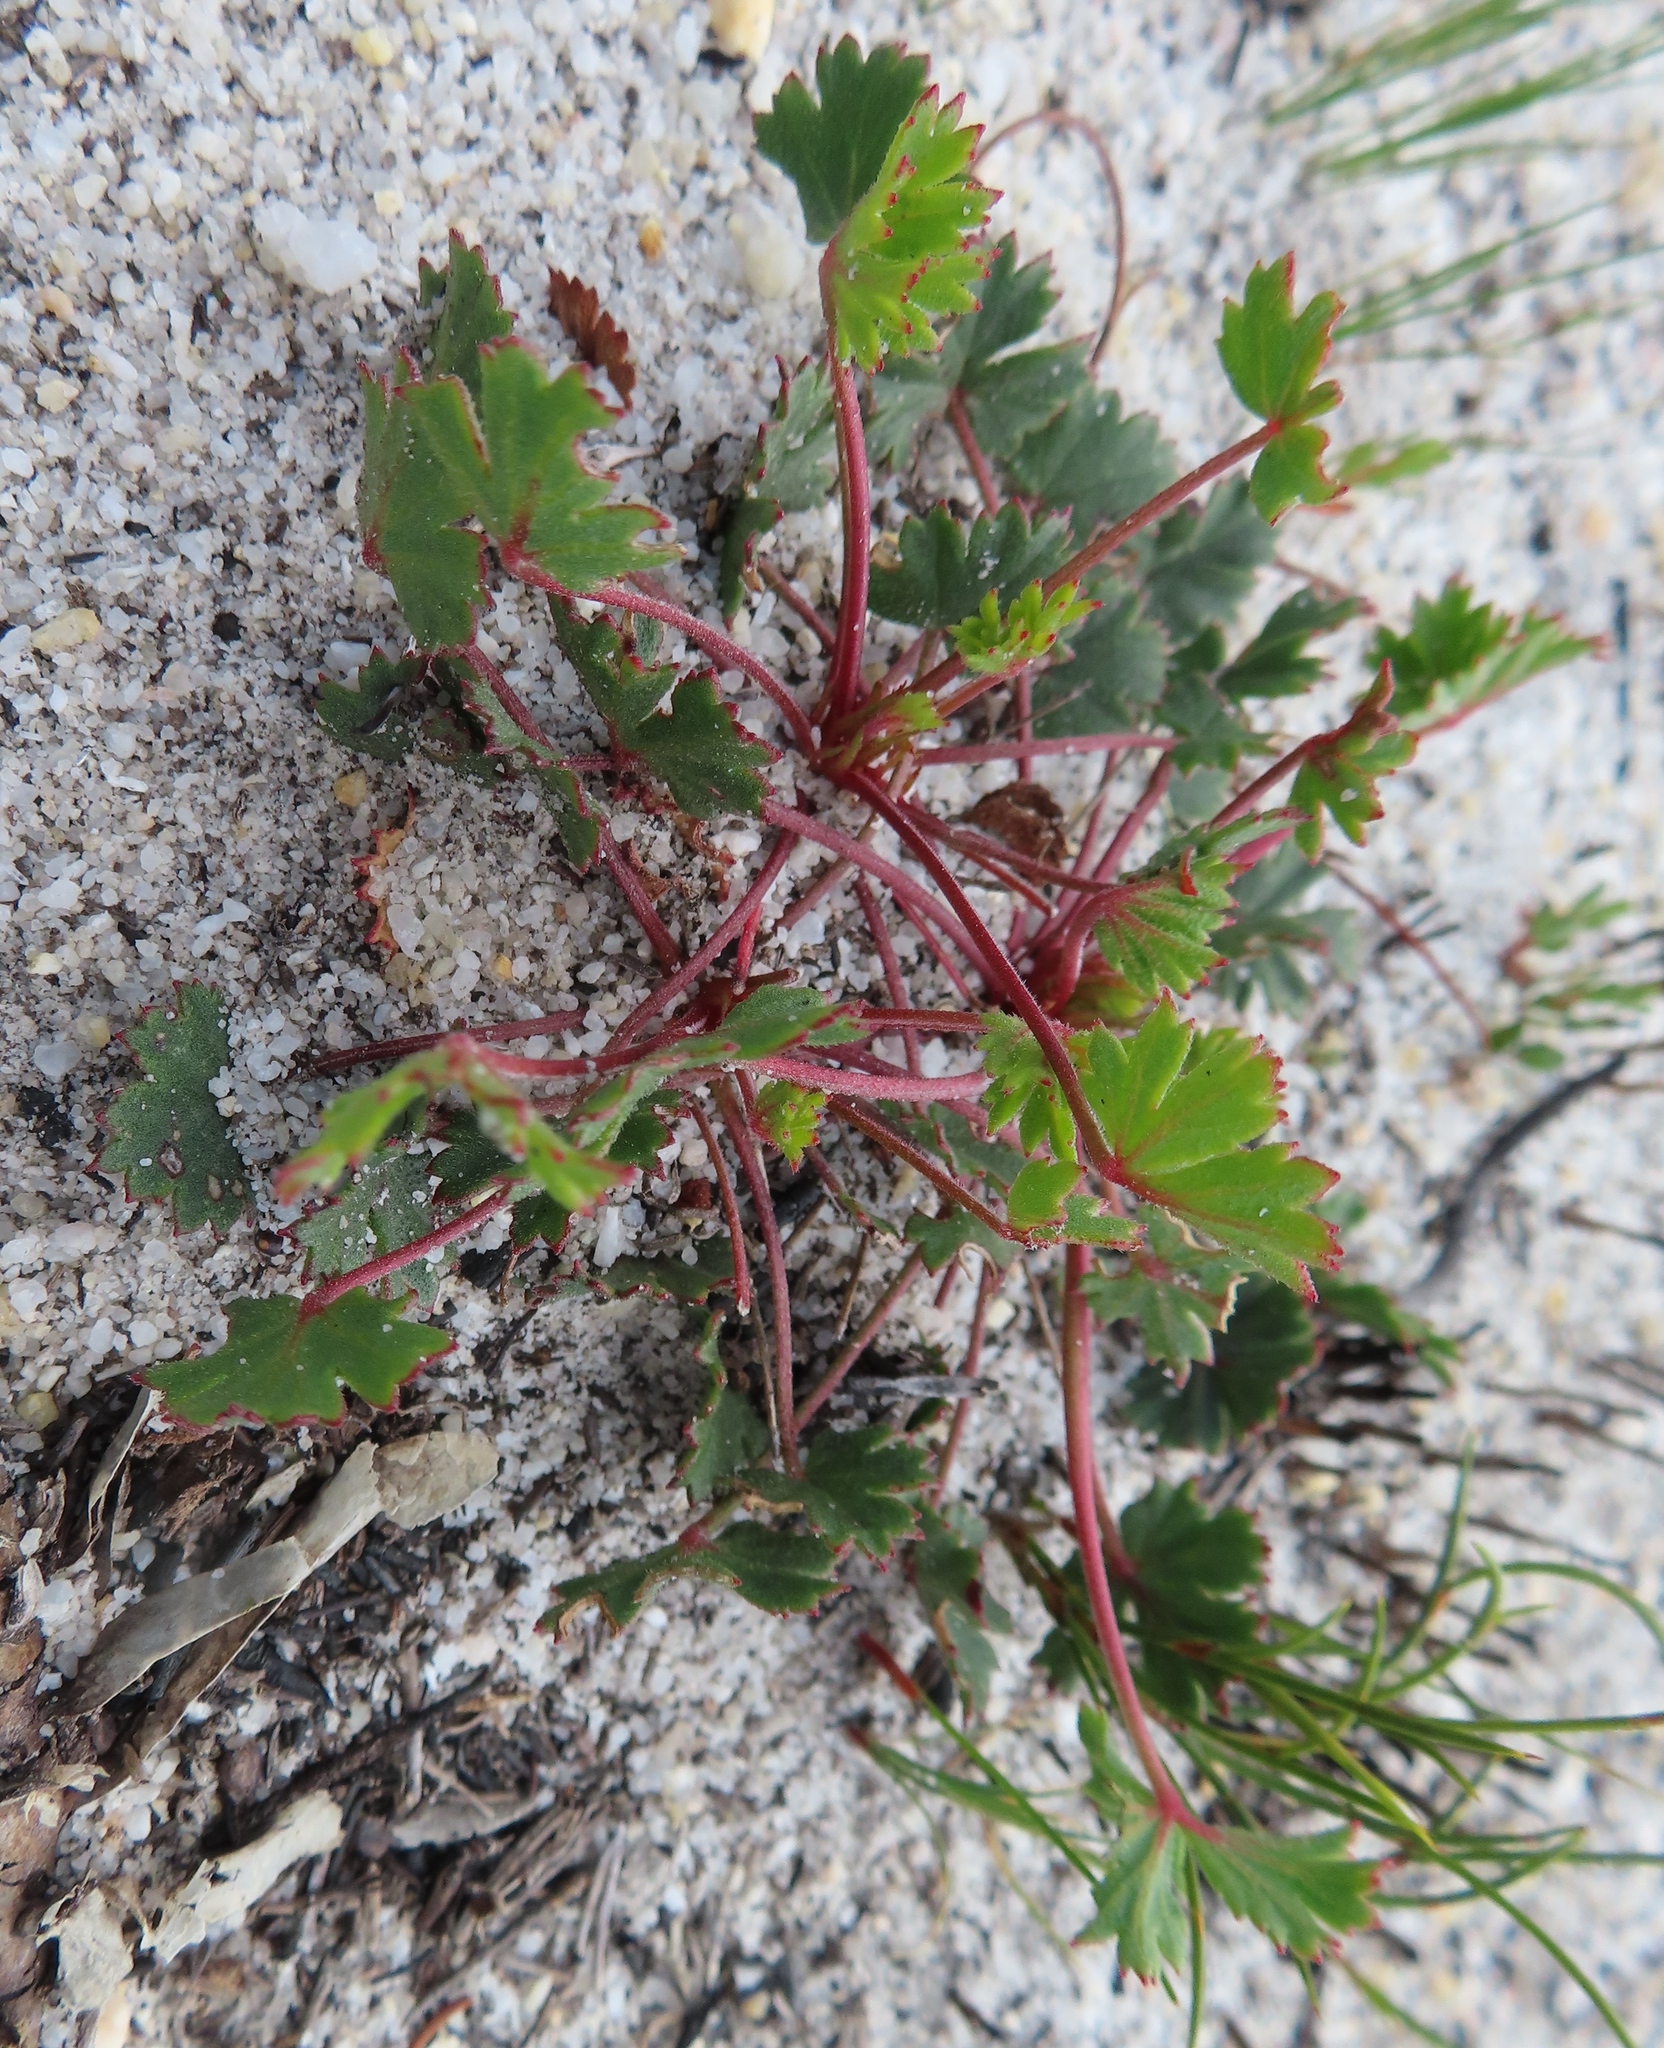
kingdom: Plantae
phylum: Tracheophyta
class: Magnoliopsida
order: Geraniales
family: Geraniaceae
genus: Pelargonium
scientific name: Pelargonium incarnatum
